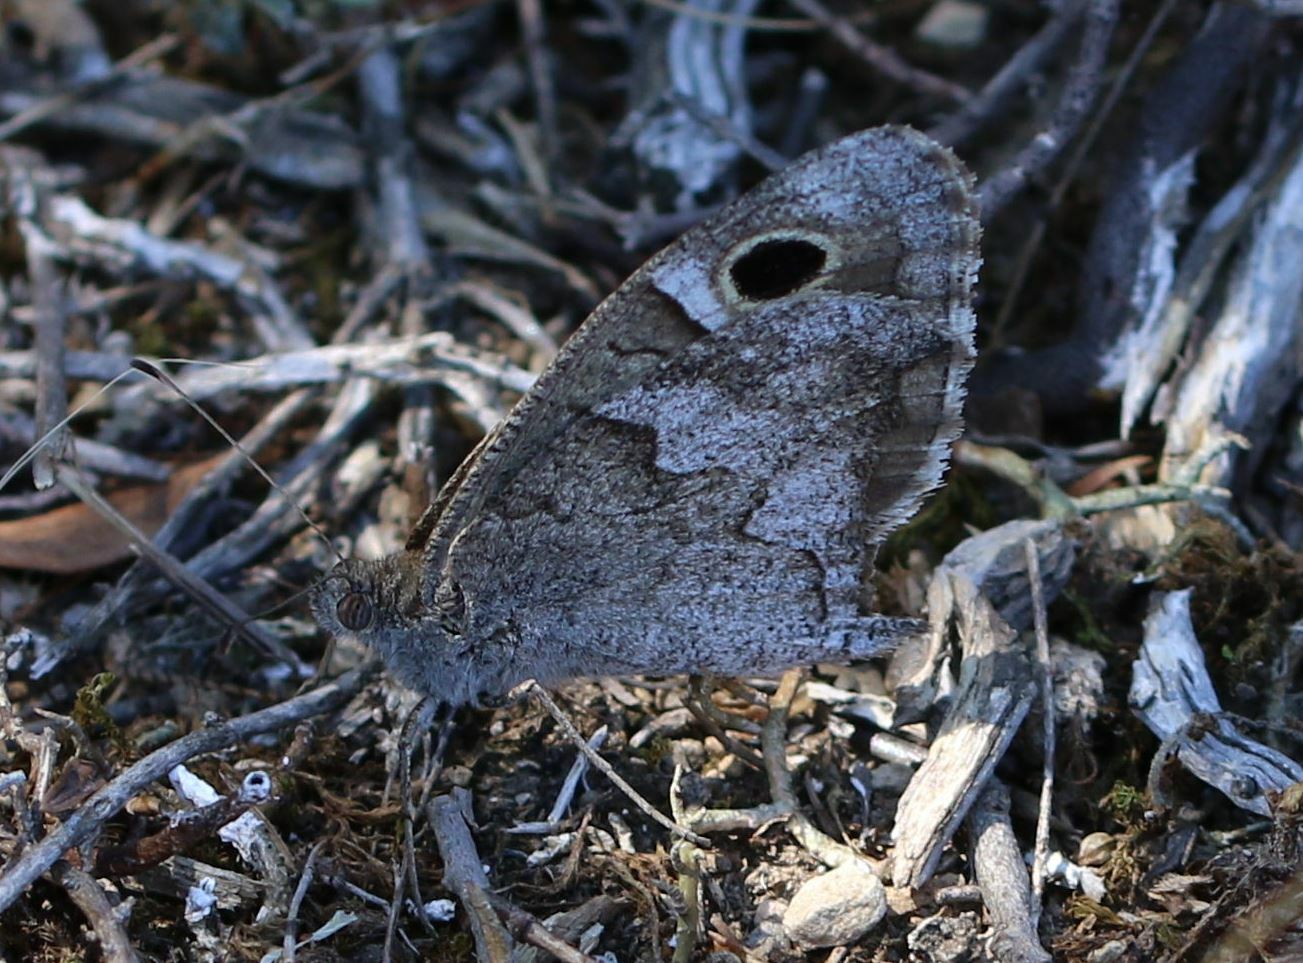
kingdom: Animalia
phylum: Arthropoda
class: Insecta
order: Lepidoptera
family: Nymphalidae
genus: Hipparchia
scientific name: Hipparchia statilinus
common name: Tree grayling
